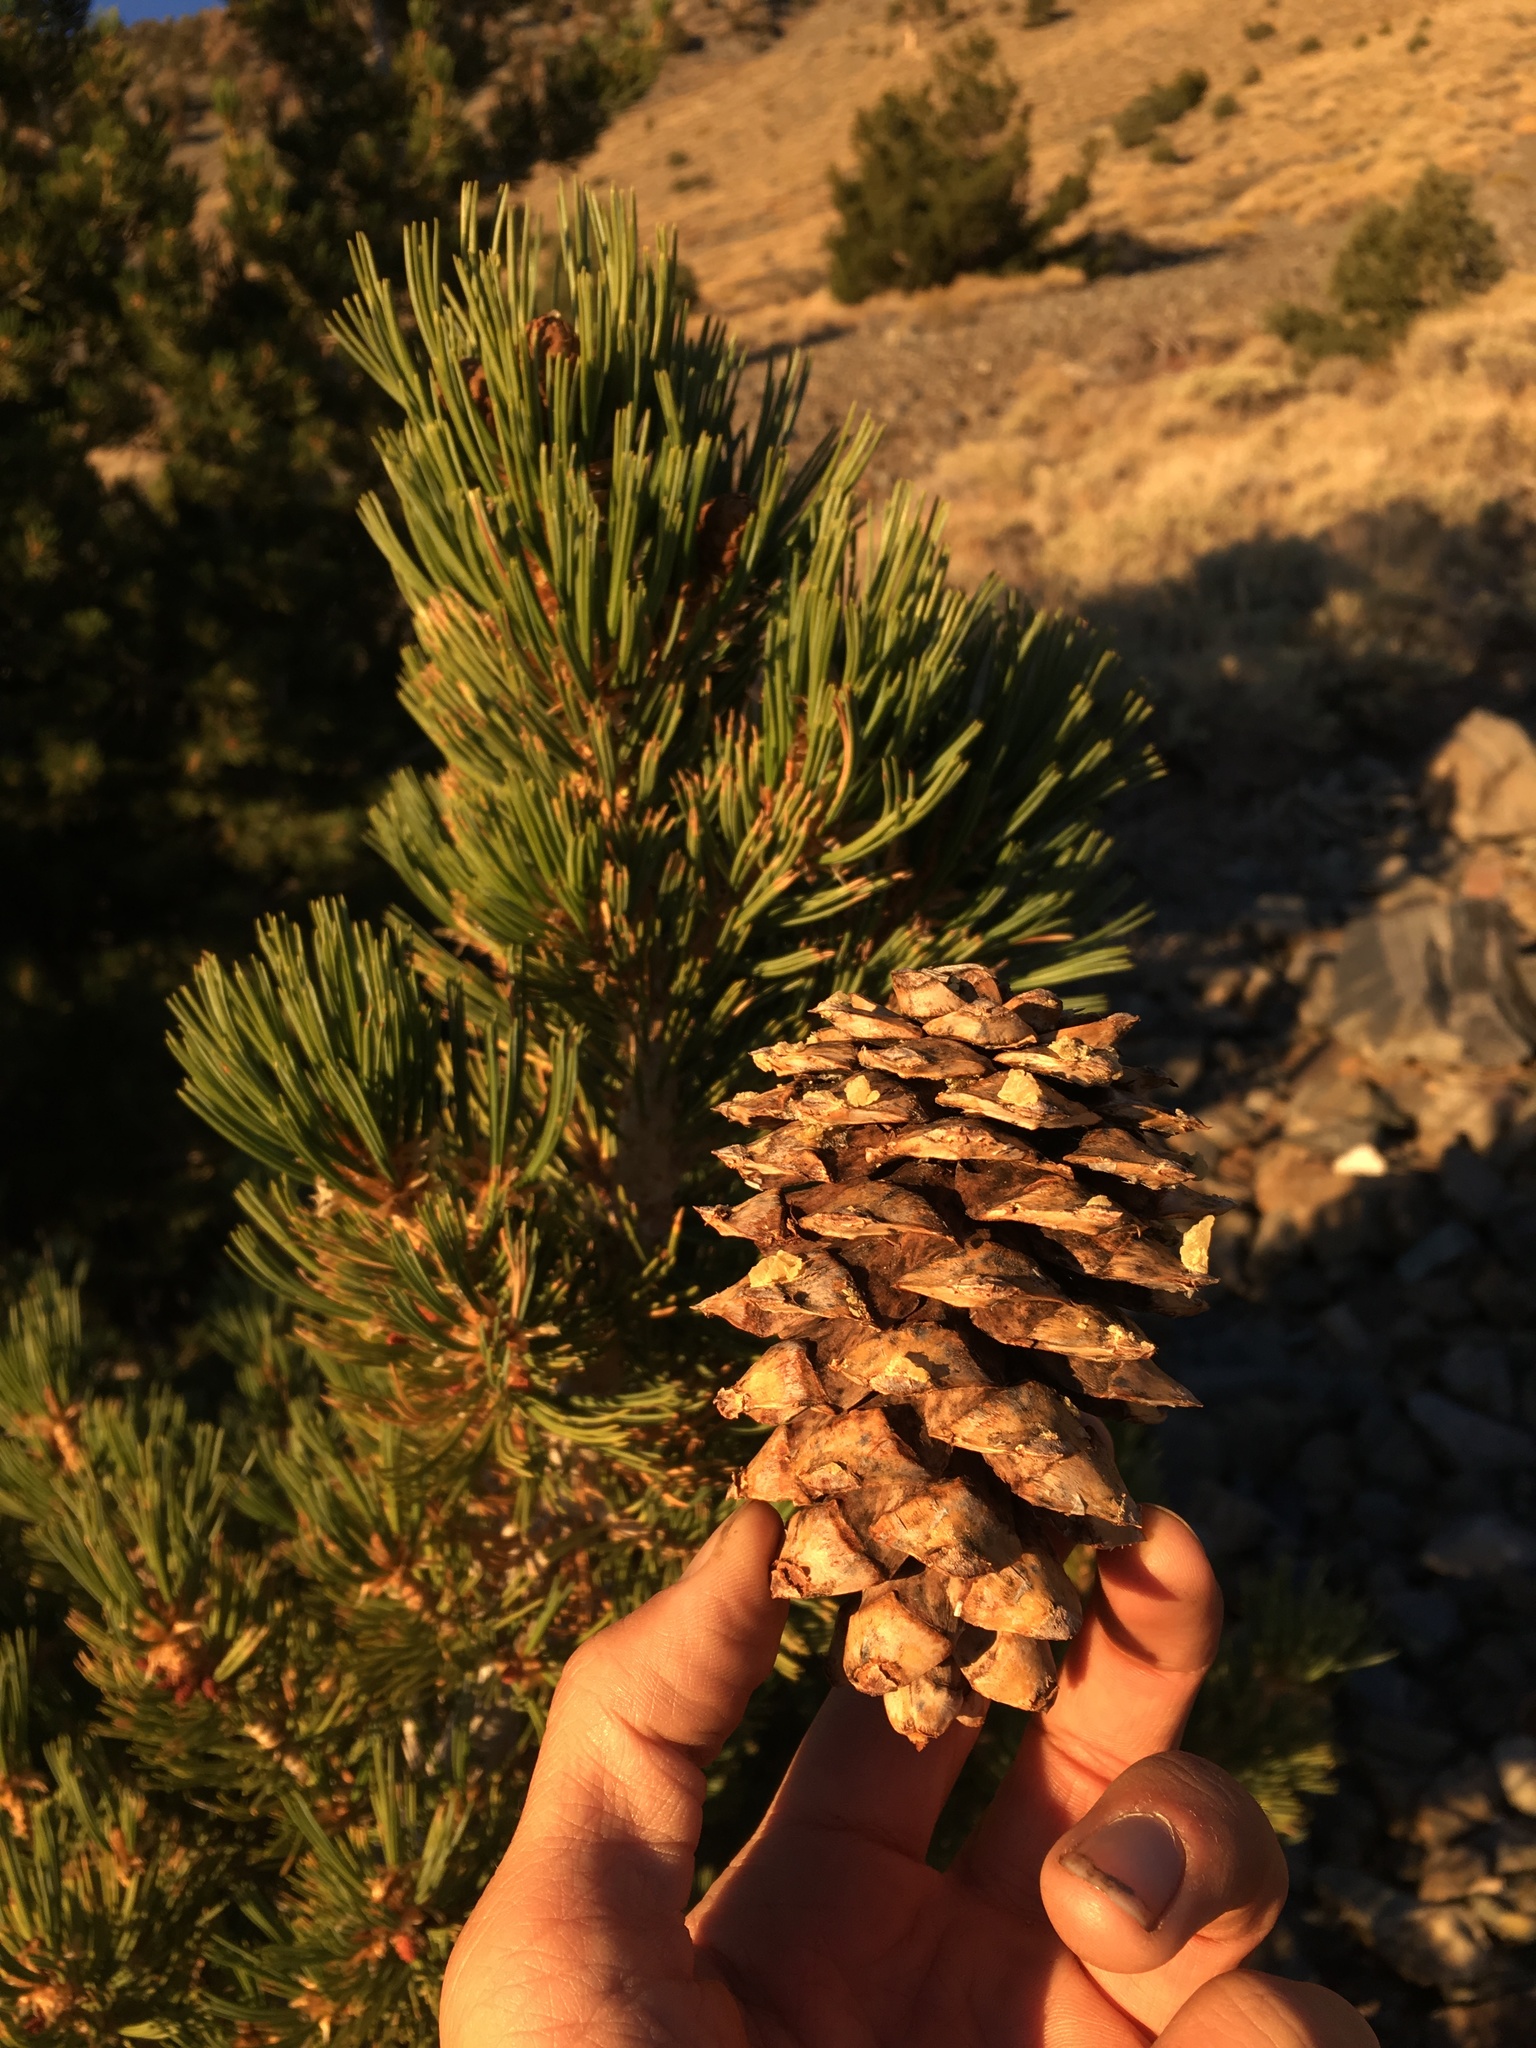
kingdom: Plantae
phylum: Tracheophyta
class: Pinopsida
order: Pinales
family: Pinaceae
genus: Pinus
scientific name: Pinus flexilis
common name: Limber pine
